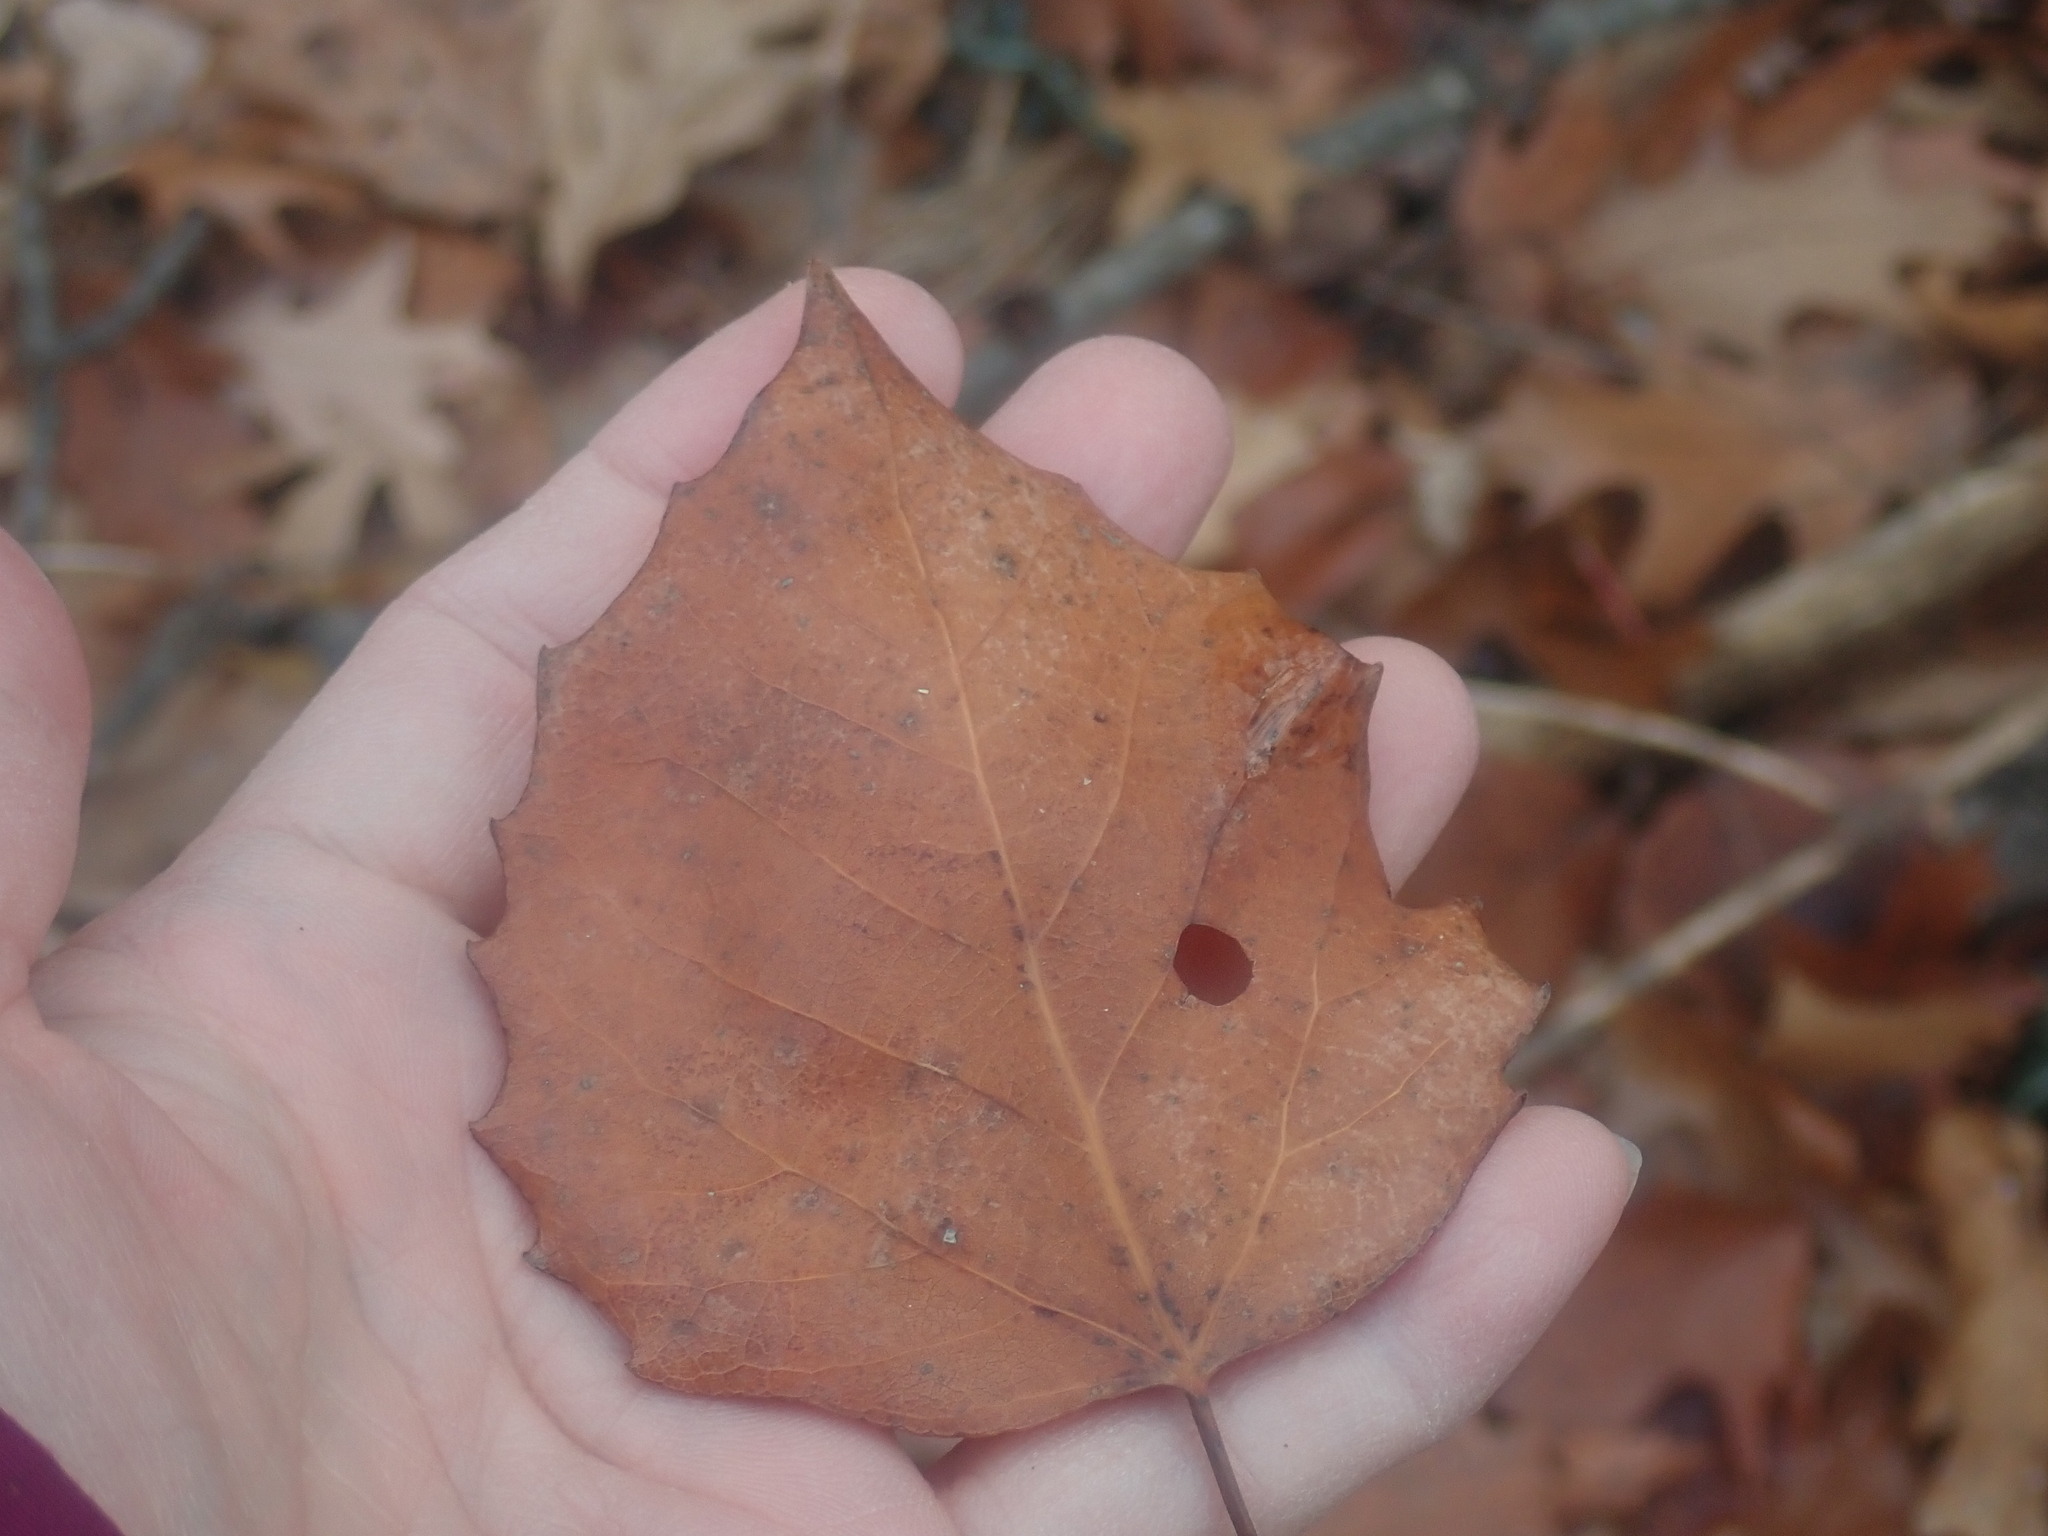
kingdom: Plantae
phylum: Tracheophyta
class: Magnoliopsida
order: Malpighiales
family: Salicaceae
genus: Populus
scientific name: Populus grandidentata
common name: Bigtooth aspen
